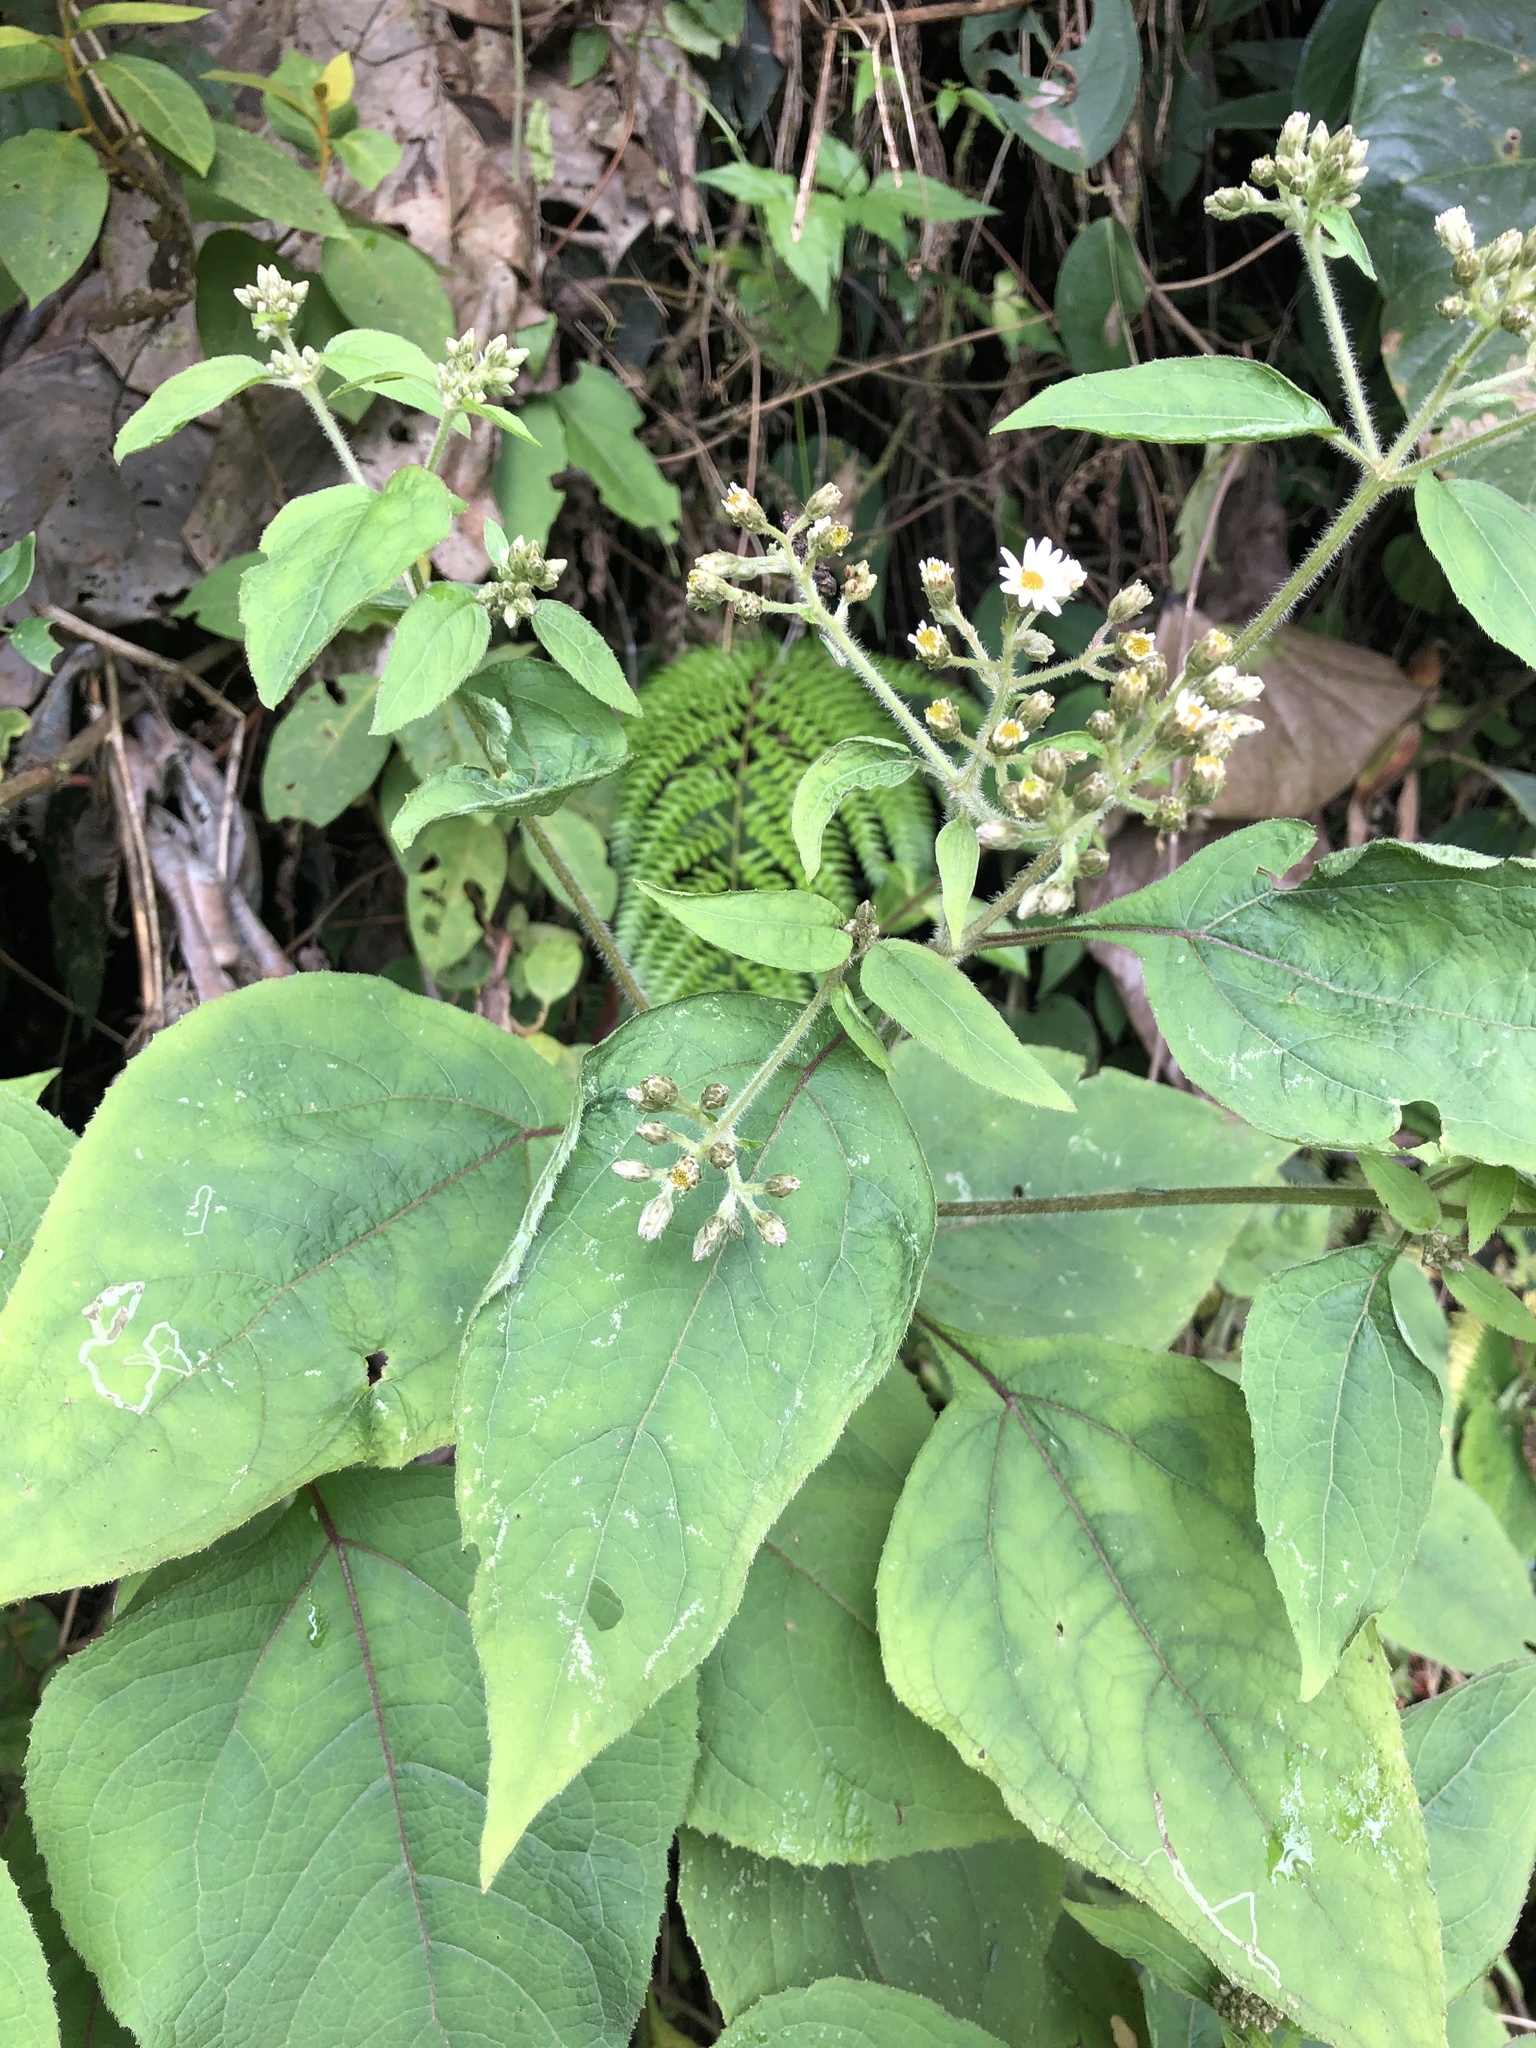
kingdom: Plantae
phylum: Tracheophyta
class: Magnoliopsida
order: Asterales
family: Asteraceae
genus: Schistocarpha
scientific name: Schistocarpha sinforosii
